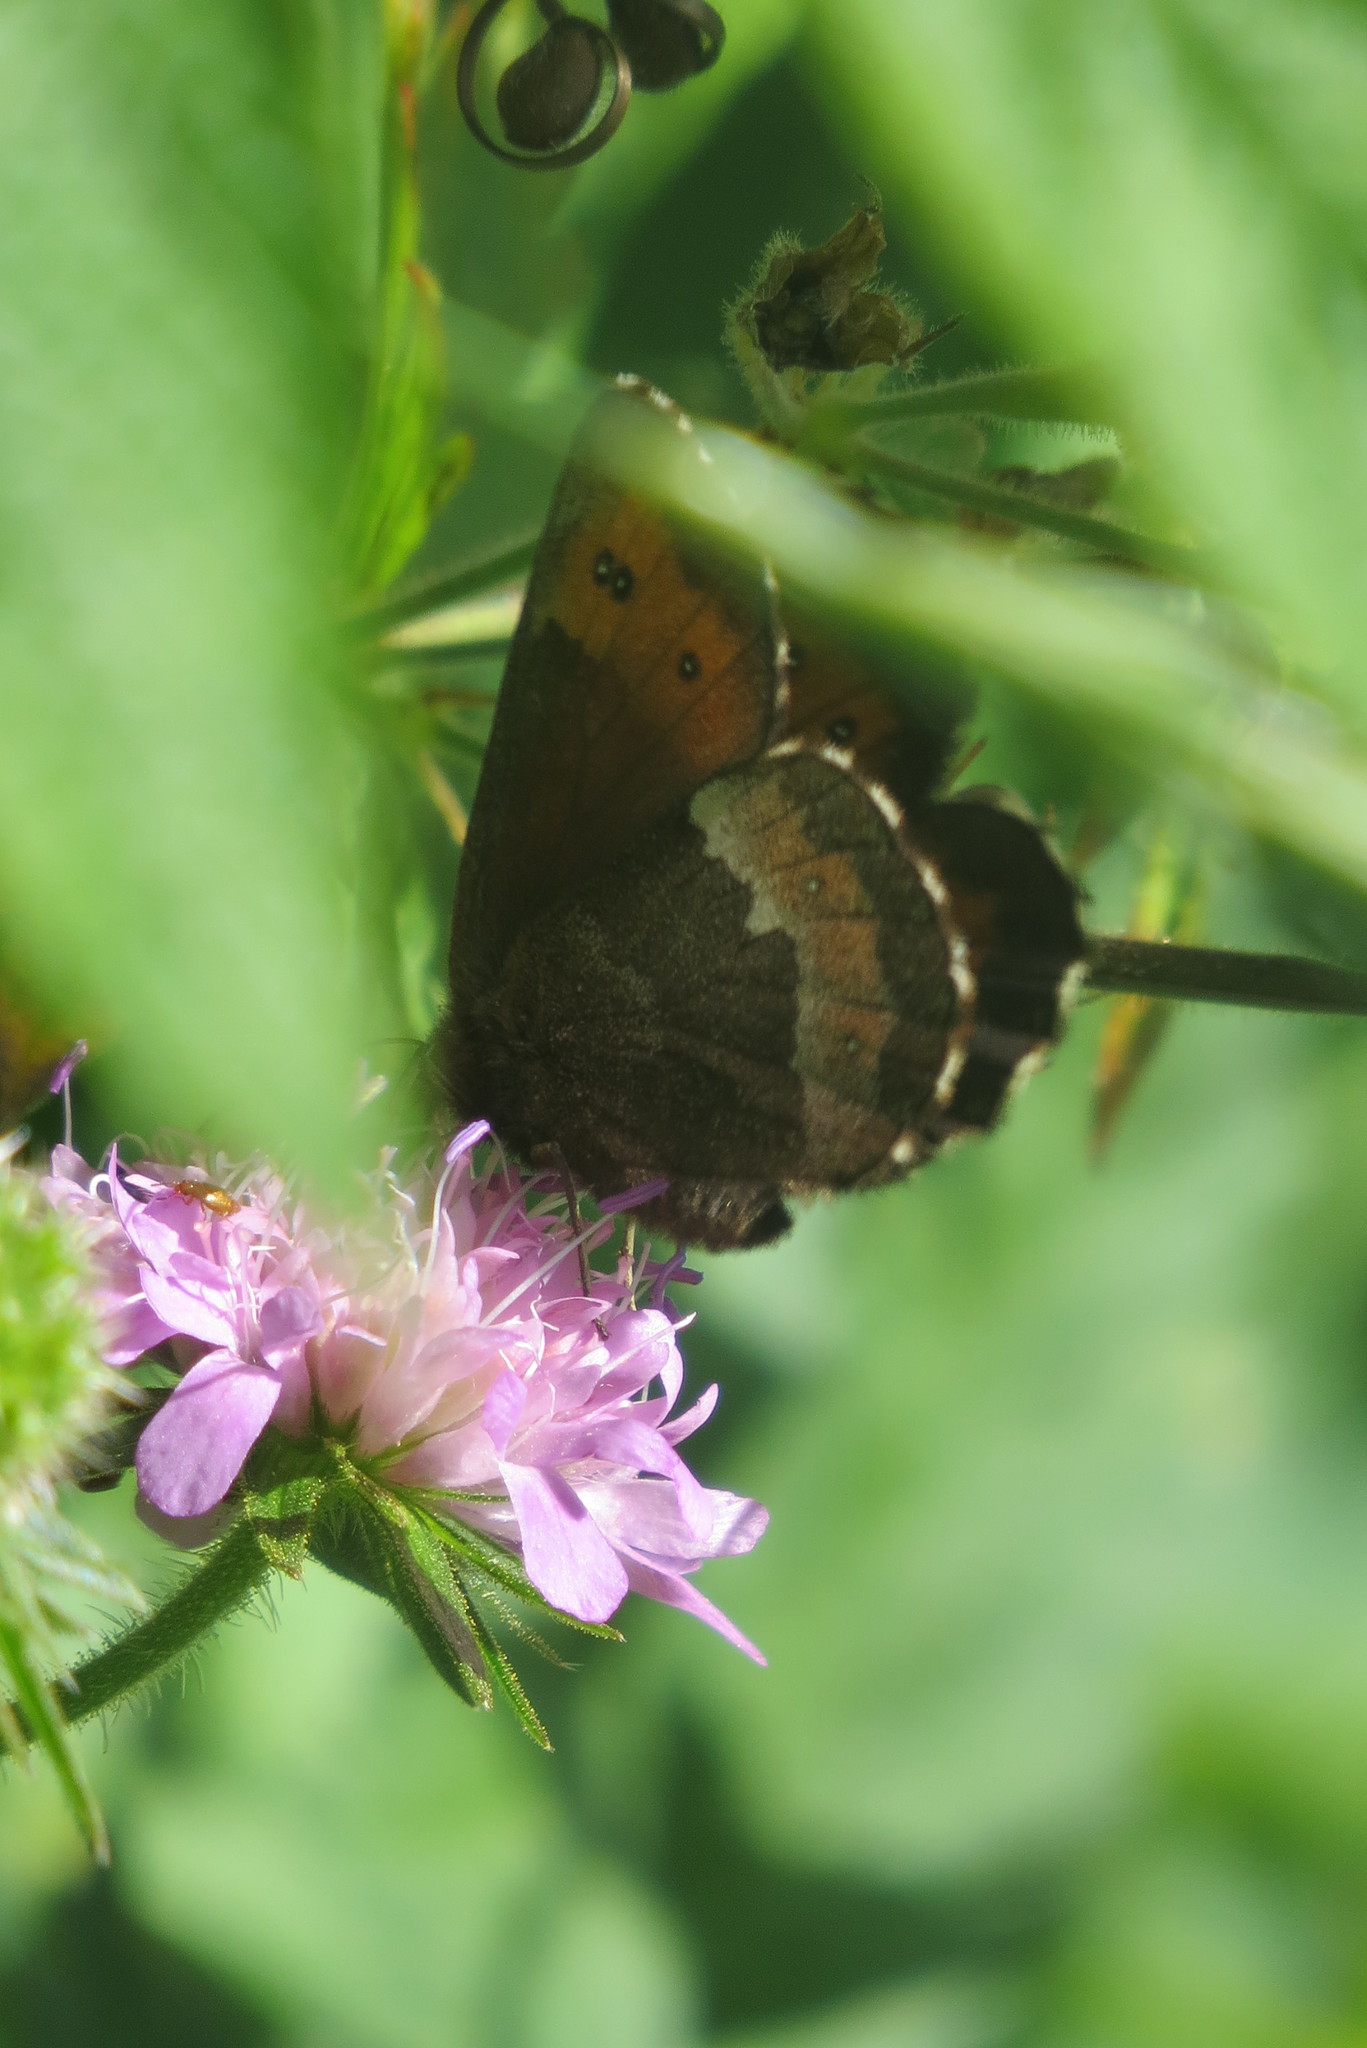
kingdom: Animalia
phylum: Arthropoda
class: Insecta
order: Lepidoptera
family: Nymphalidae
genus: Erebia
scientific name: Erebia euryale
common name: Large ringlet
